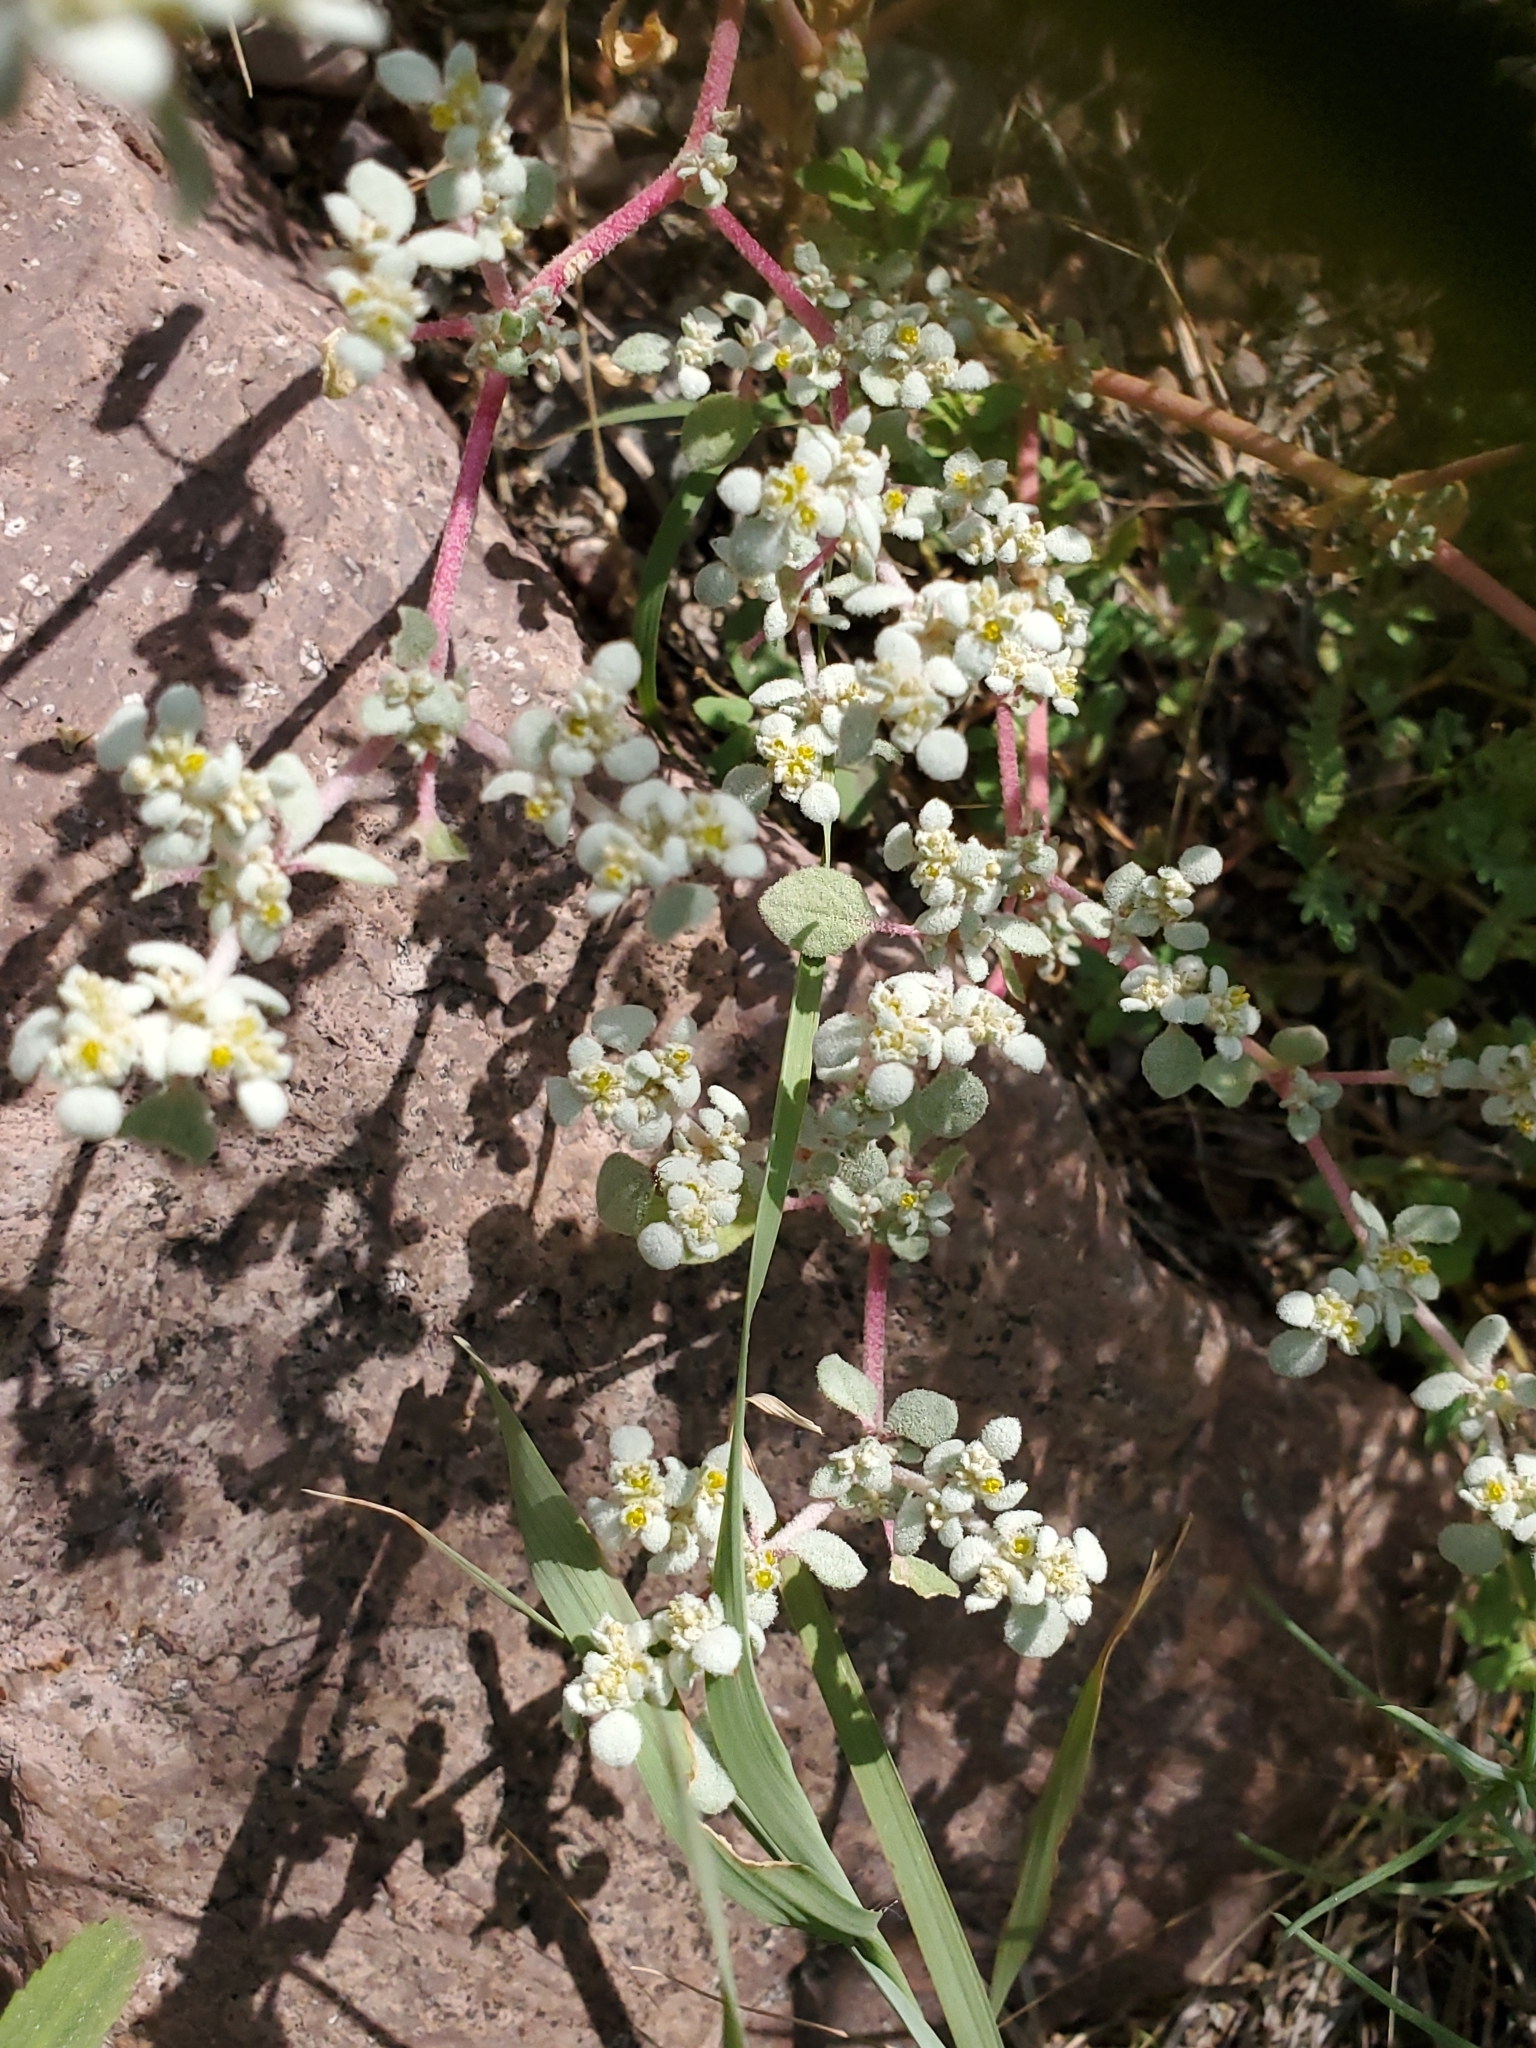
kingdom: Plantae
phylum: Tracheophyta
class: Magnoliopsida
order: Caryophyllales
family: Amaranthaceae
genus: Tidestromia
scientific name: Tidestromia lanuginosa
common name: Woolly tidestromia
